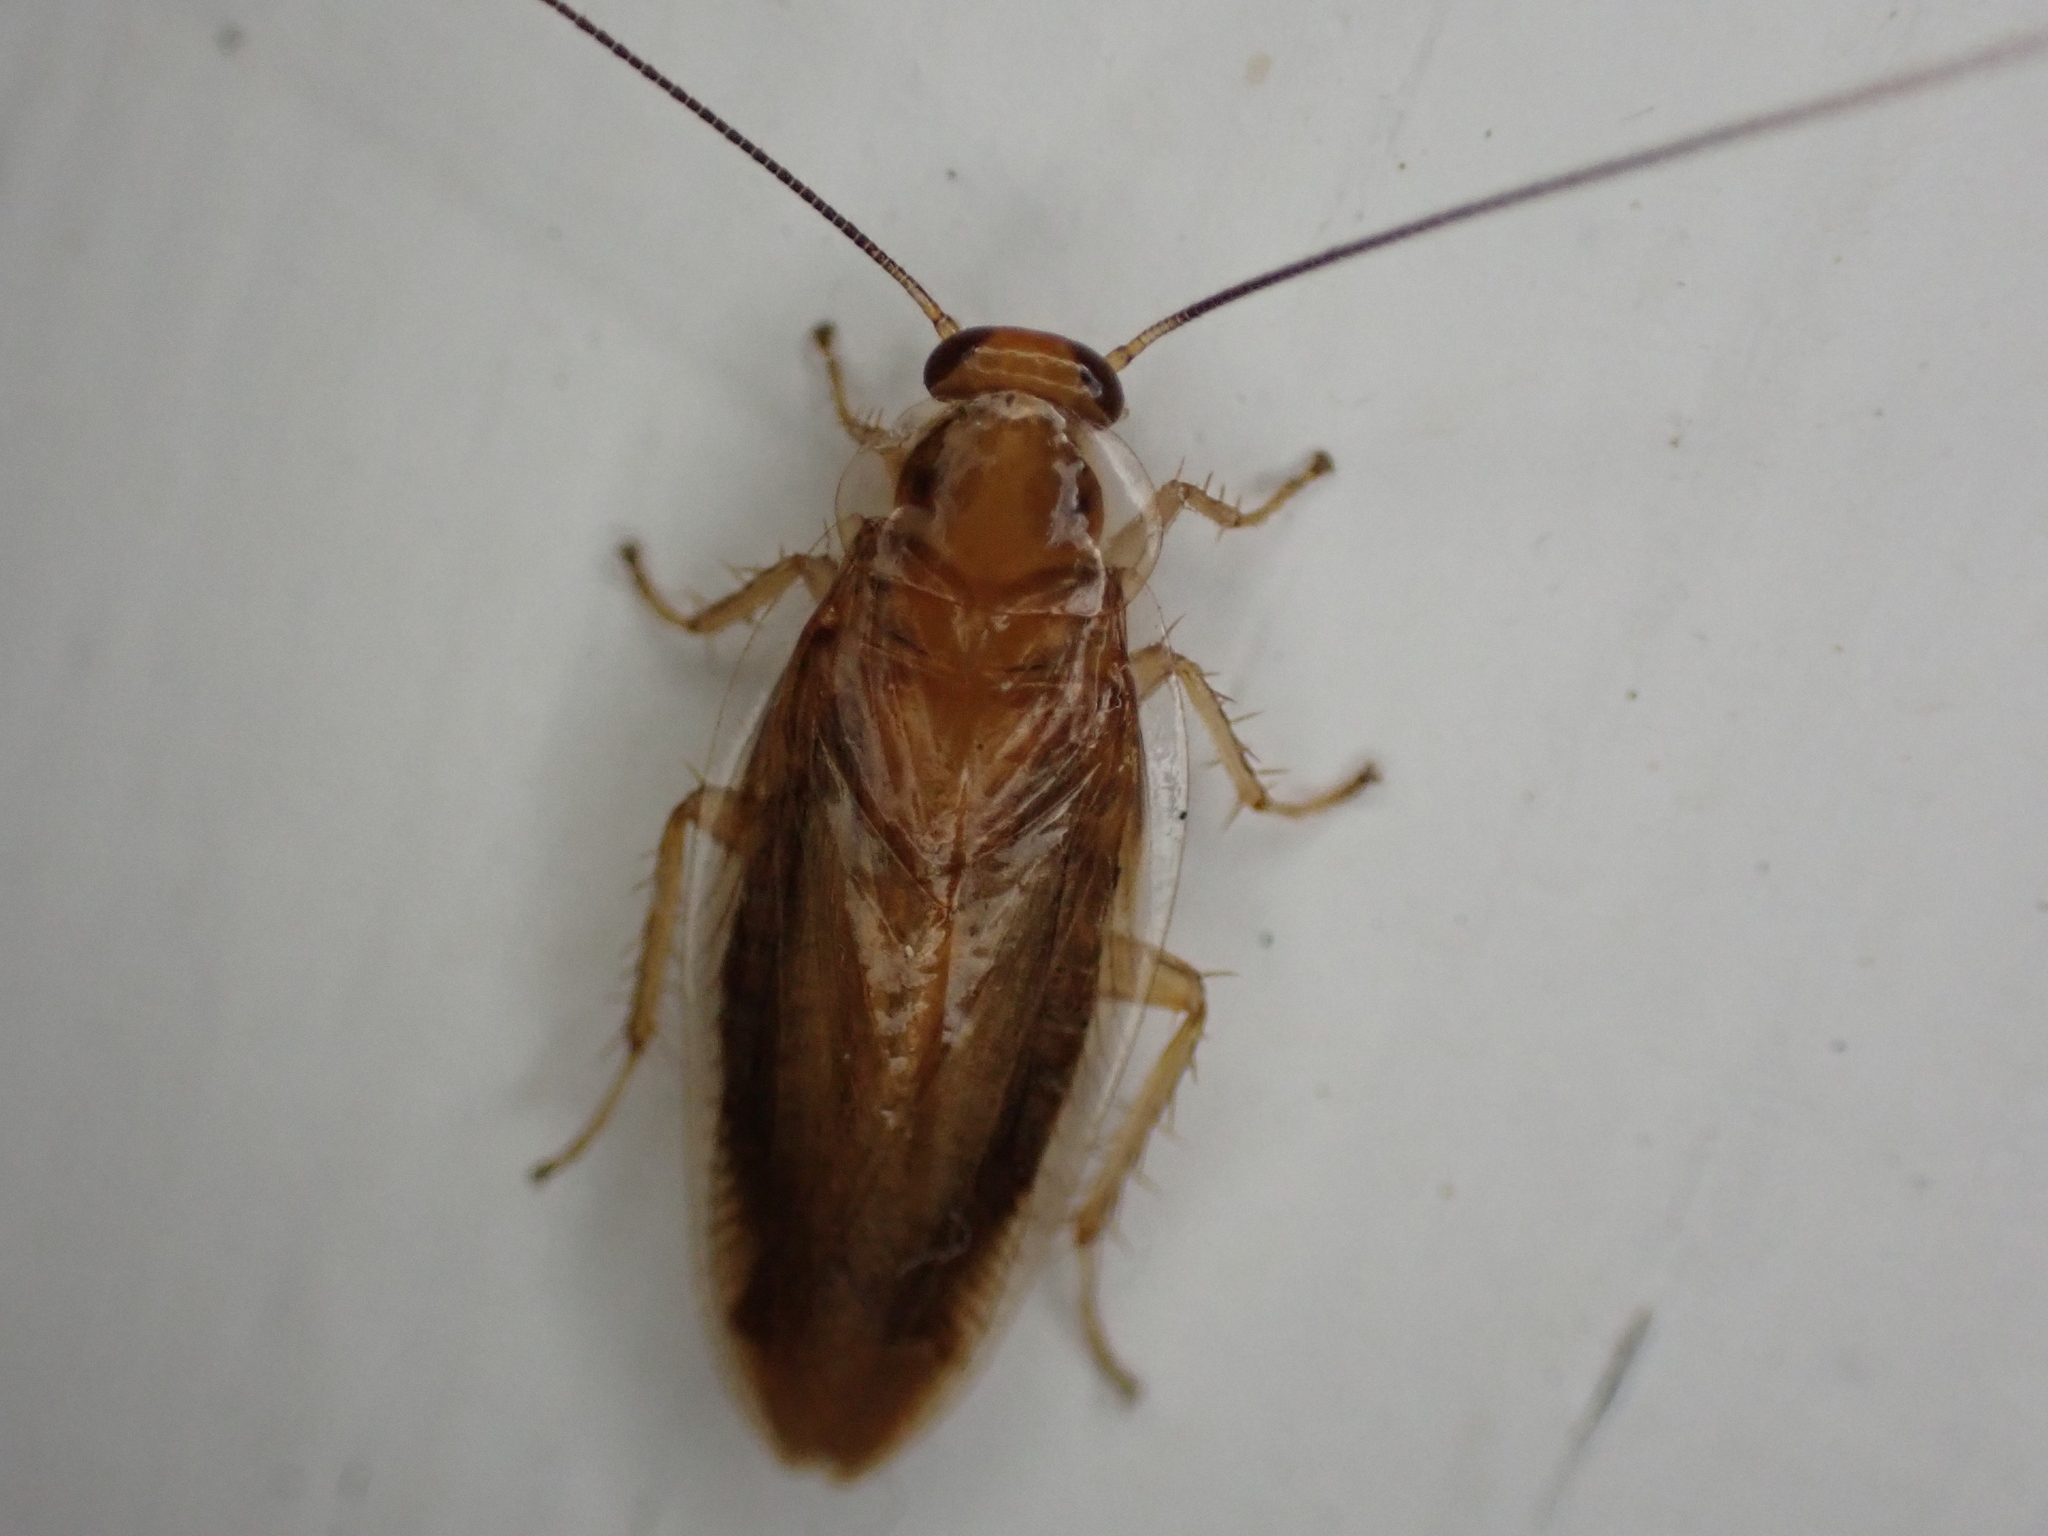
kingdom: Animalia
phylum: Arthropoda
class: Insecta
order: Blattodea
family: Ectobiidae
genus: Chorisoneura
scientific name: Chorisoneura texensis
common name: Small texas cockroach
